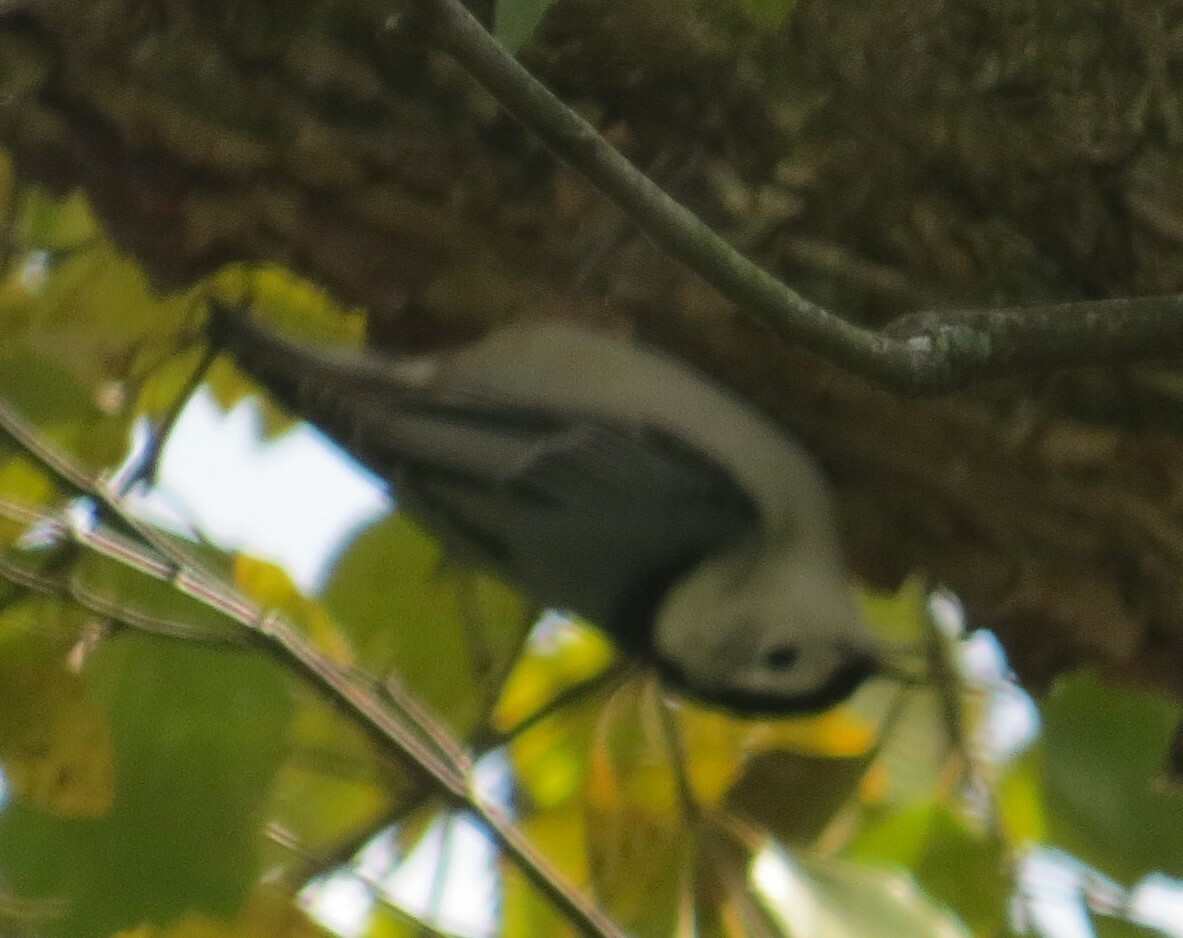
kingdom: Animalia
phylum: Chordata
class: Aves
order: Passeriformes
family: Sittidae
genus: Sitta
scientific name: Sitta carolinensis
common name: White-breasted nuthatch
